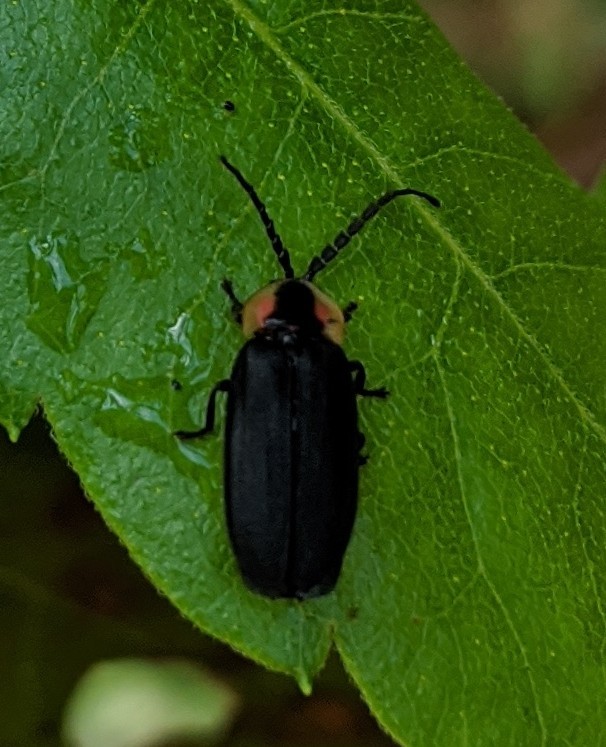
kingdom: Animalia
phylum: Arthropoda
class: Insecta
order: Coleoptera
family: Lampyridae
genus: Lucidota
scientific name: Lucidota atra
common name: Black firefly
